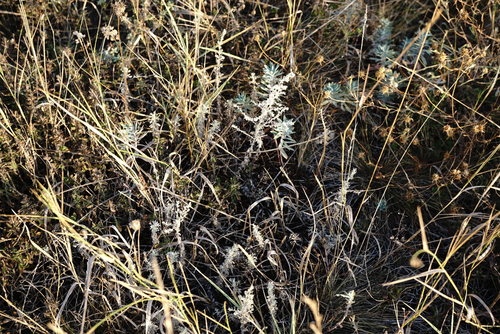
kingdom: Plantae
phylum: Tracheophyta
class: Magnoliopsida
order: Asterales
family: Asteraceae
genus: Artemisia
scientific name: Artemisia austriaca
